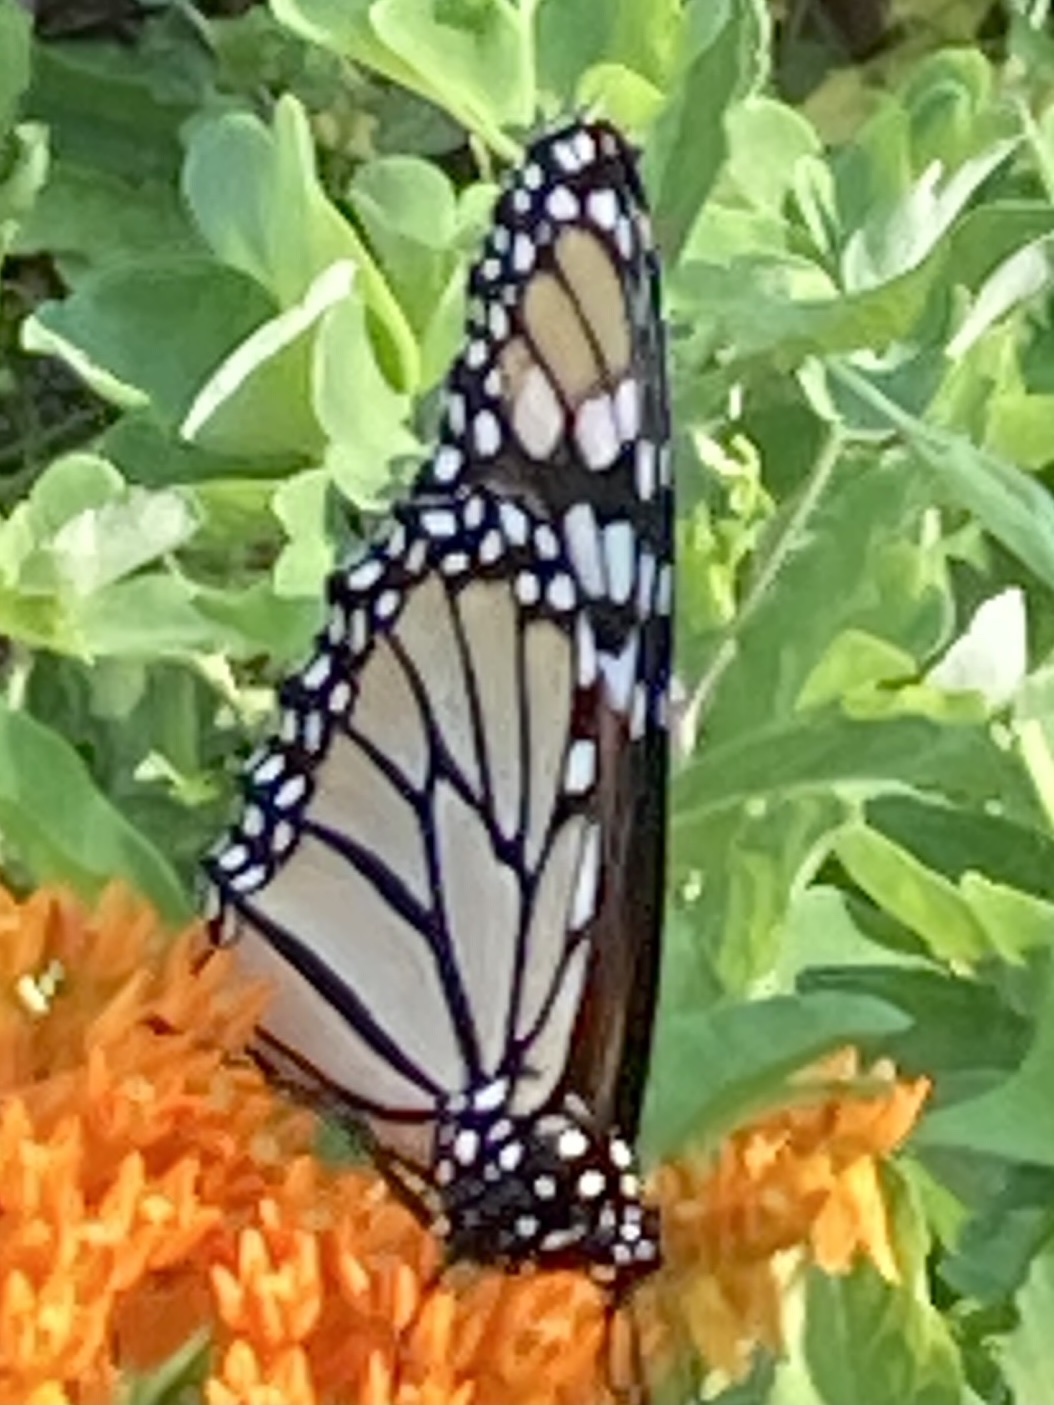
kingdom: Animalia
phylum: Arthropoda
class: Insecta
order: Lepidoptera
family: Nymphalidae
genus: Danaus
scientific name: Danaus plexippus
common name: Monarch
